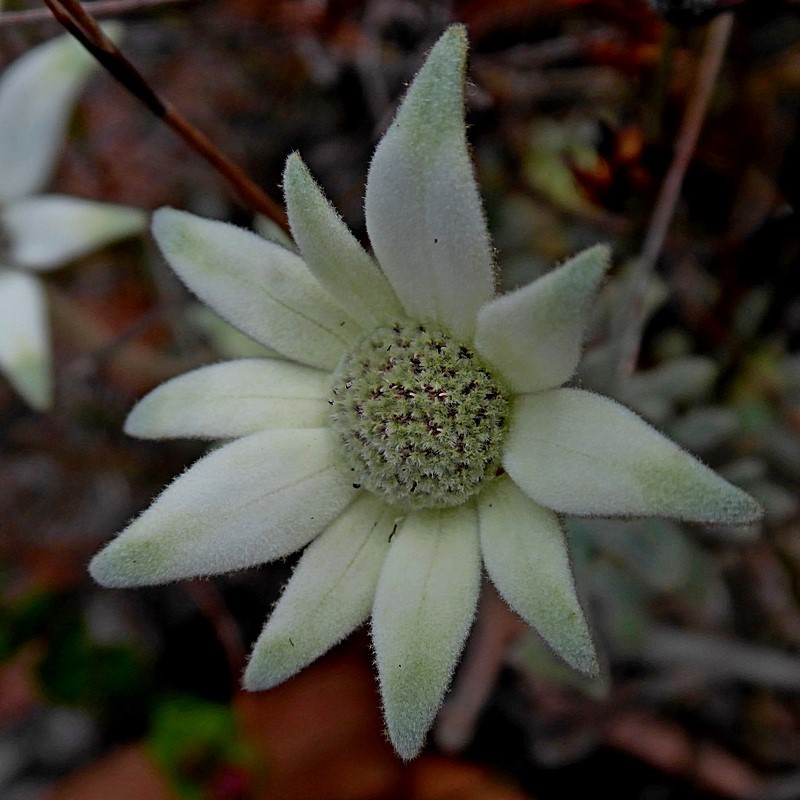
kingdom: Plantae
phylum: Tracheophyta
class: Magnoliopsida
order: Apiales
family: Apiaceae
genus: Actinotus
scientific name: Actinotus helianthi
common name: Flannel-flower
